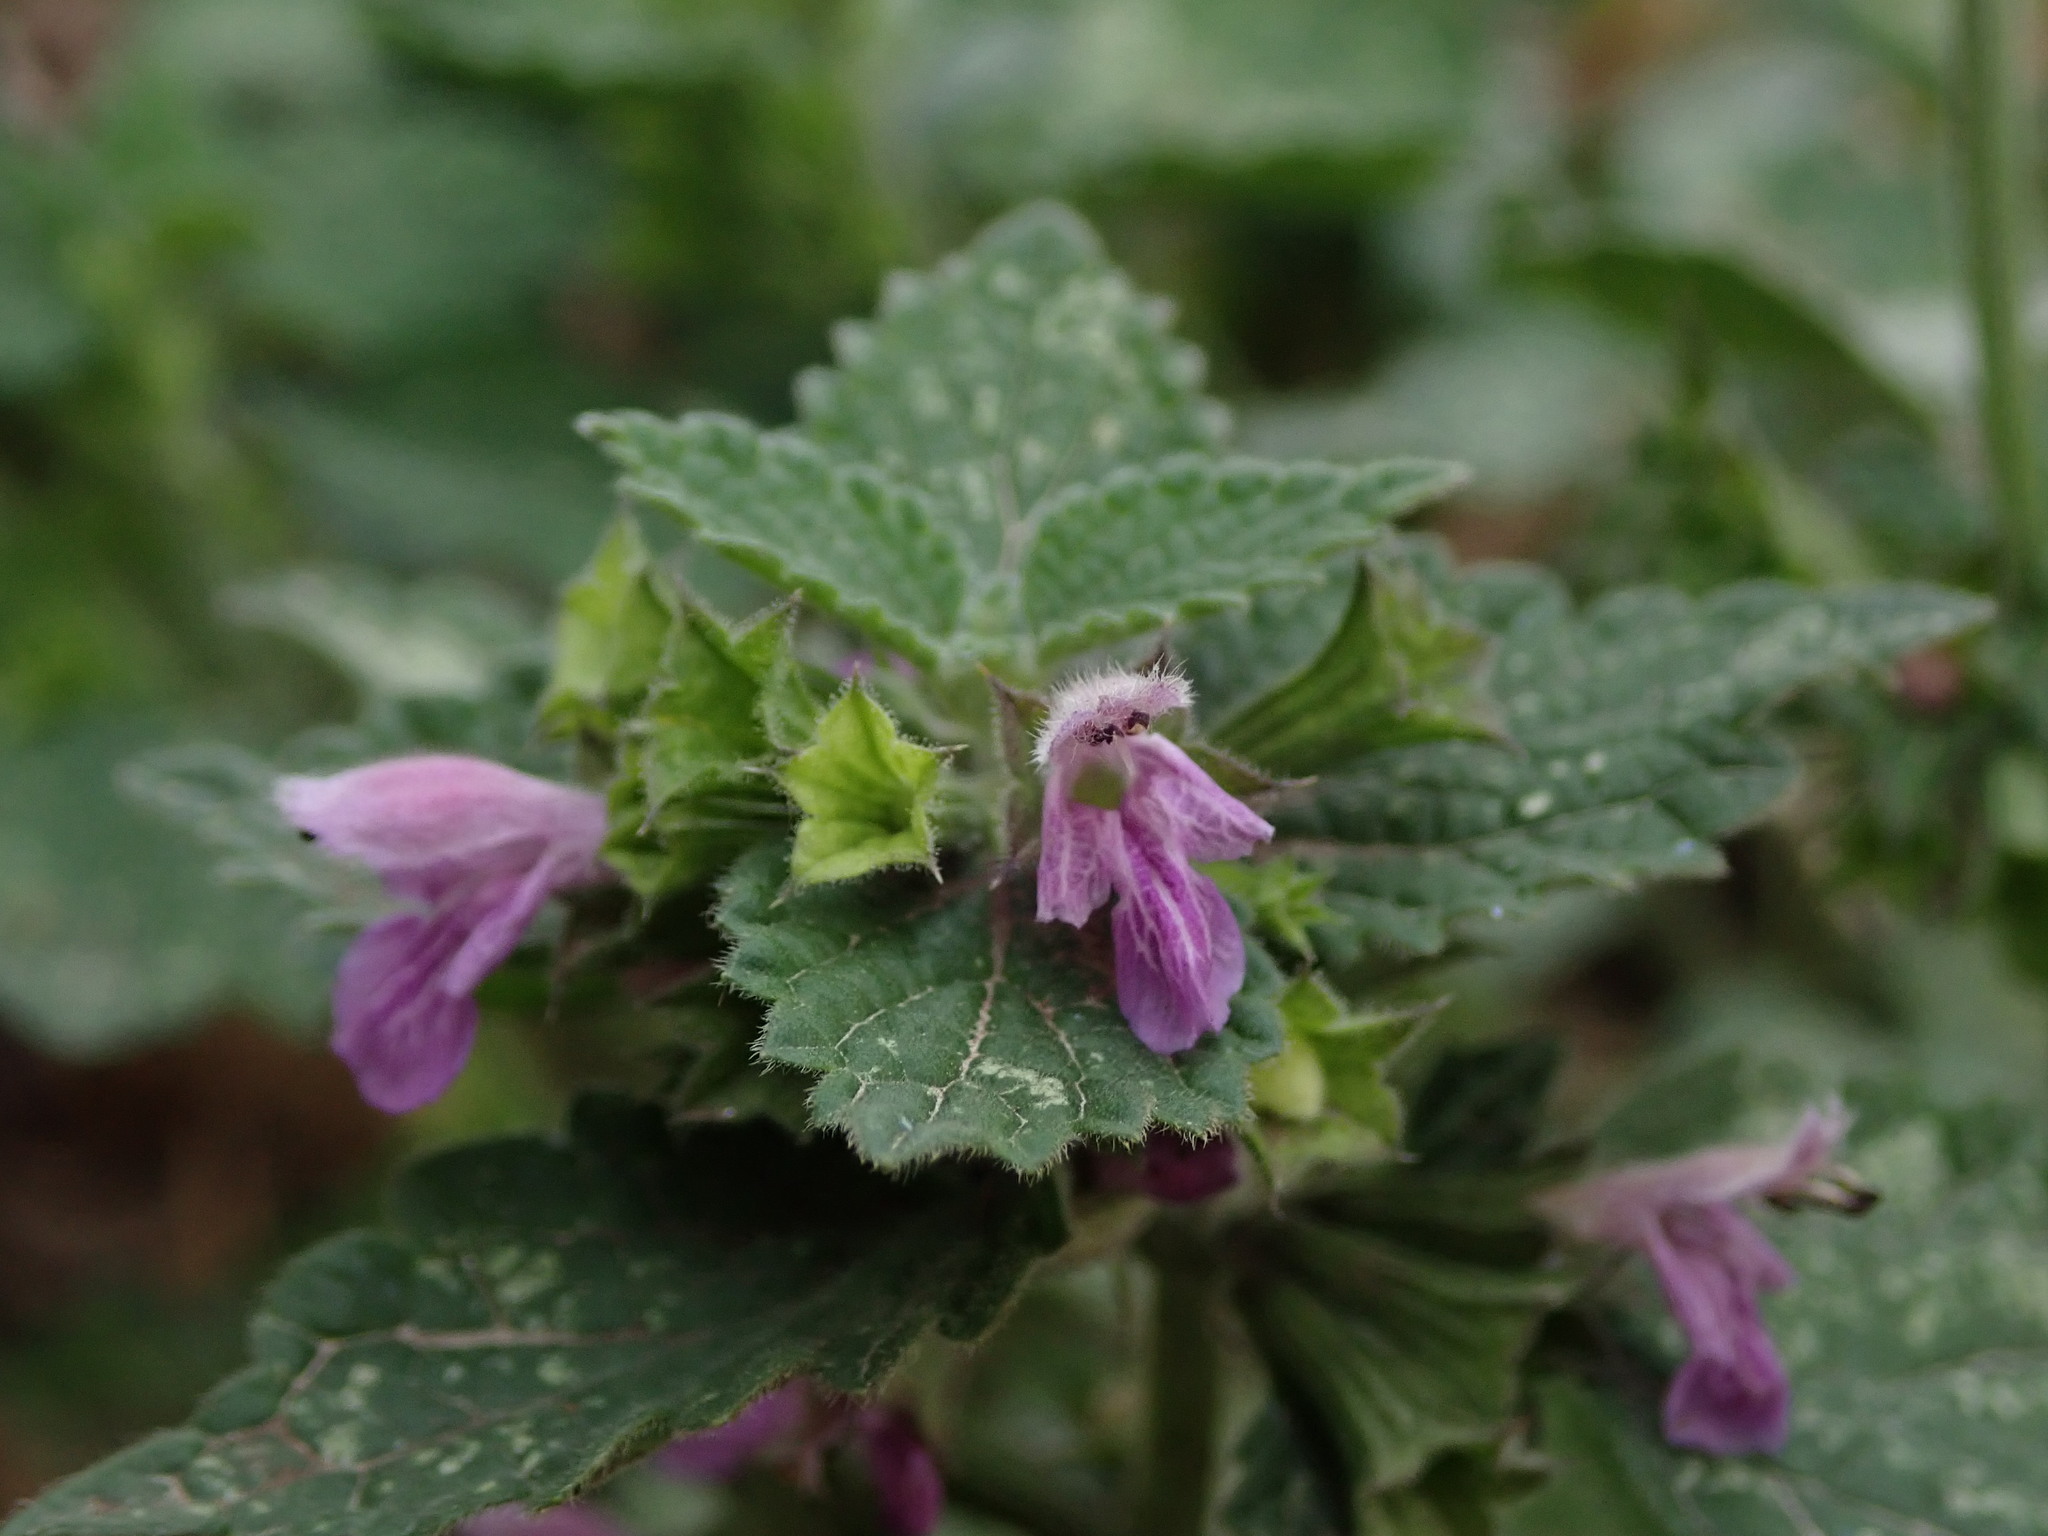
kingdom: Plantae
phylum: Tracheophyta
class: Magnoliopsida
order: Lamiales
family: Lamiaceae
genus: Ballota
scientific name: Ballota nigra
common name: Black horehound
